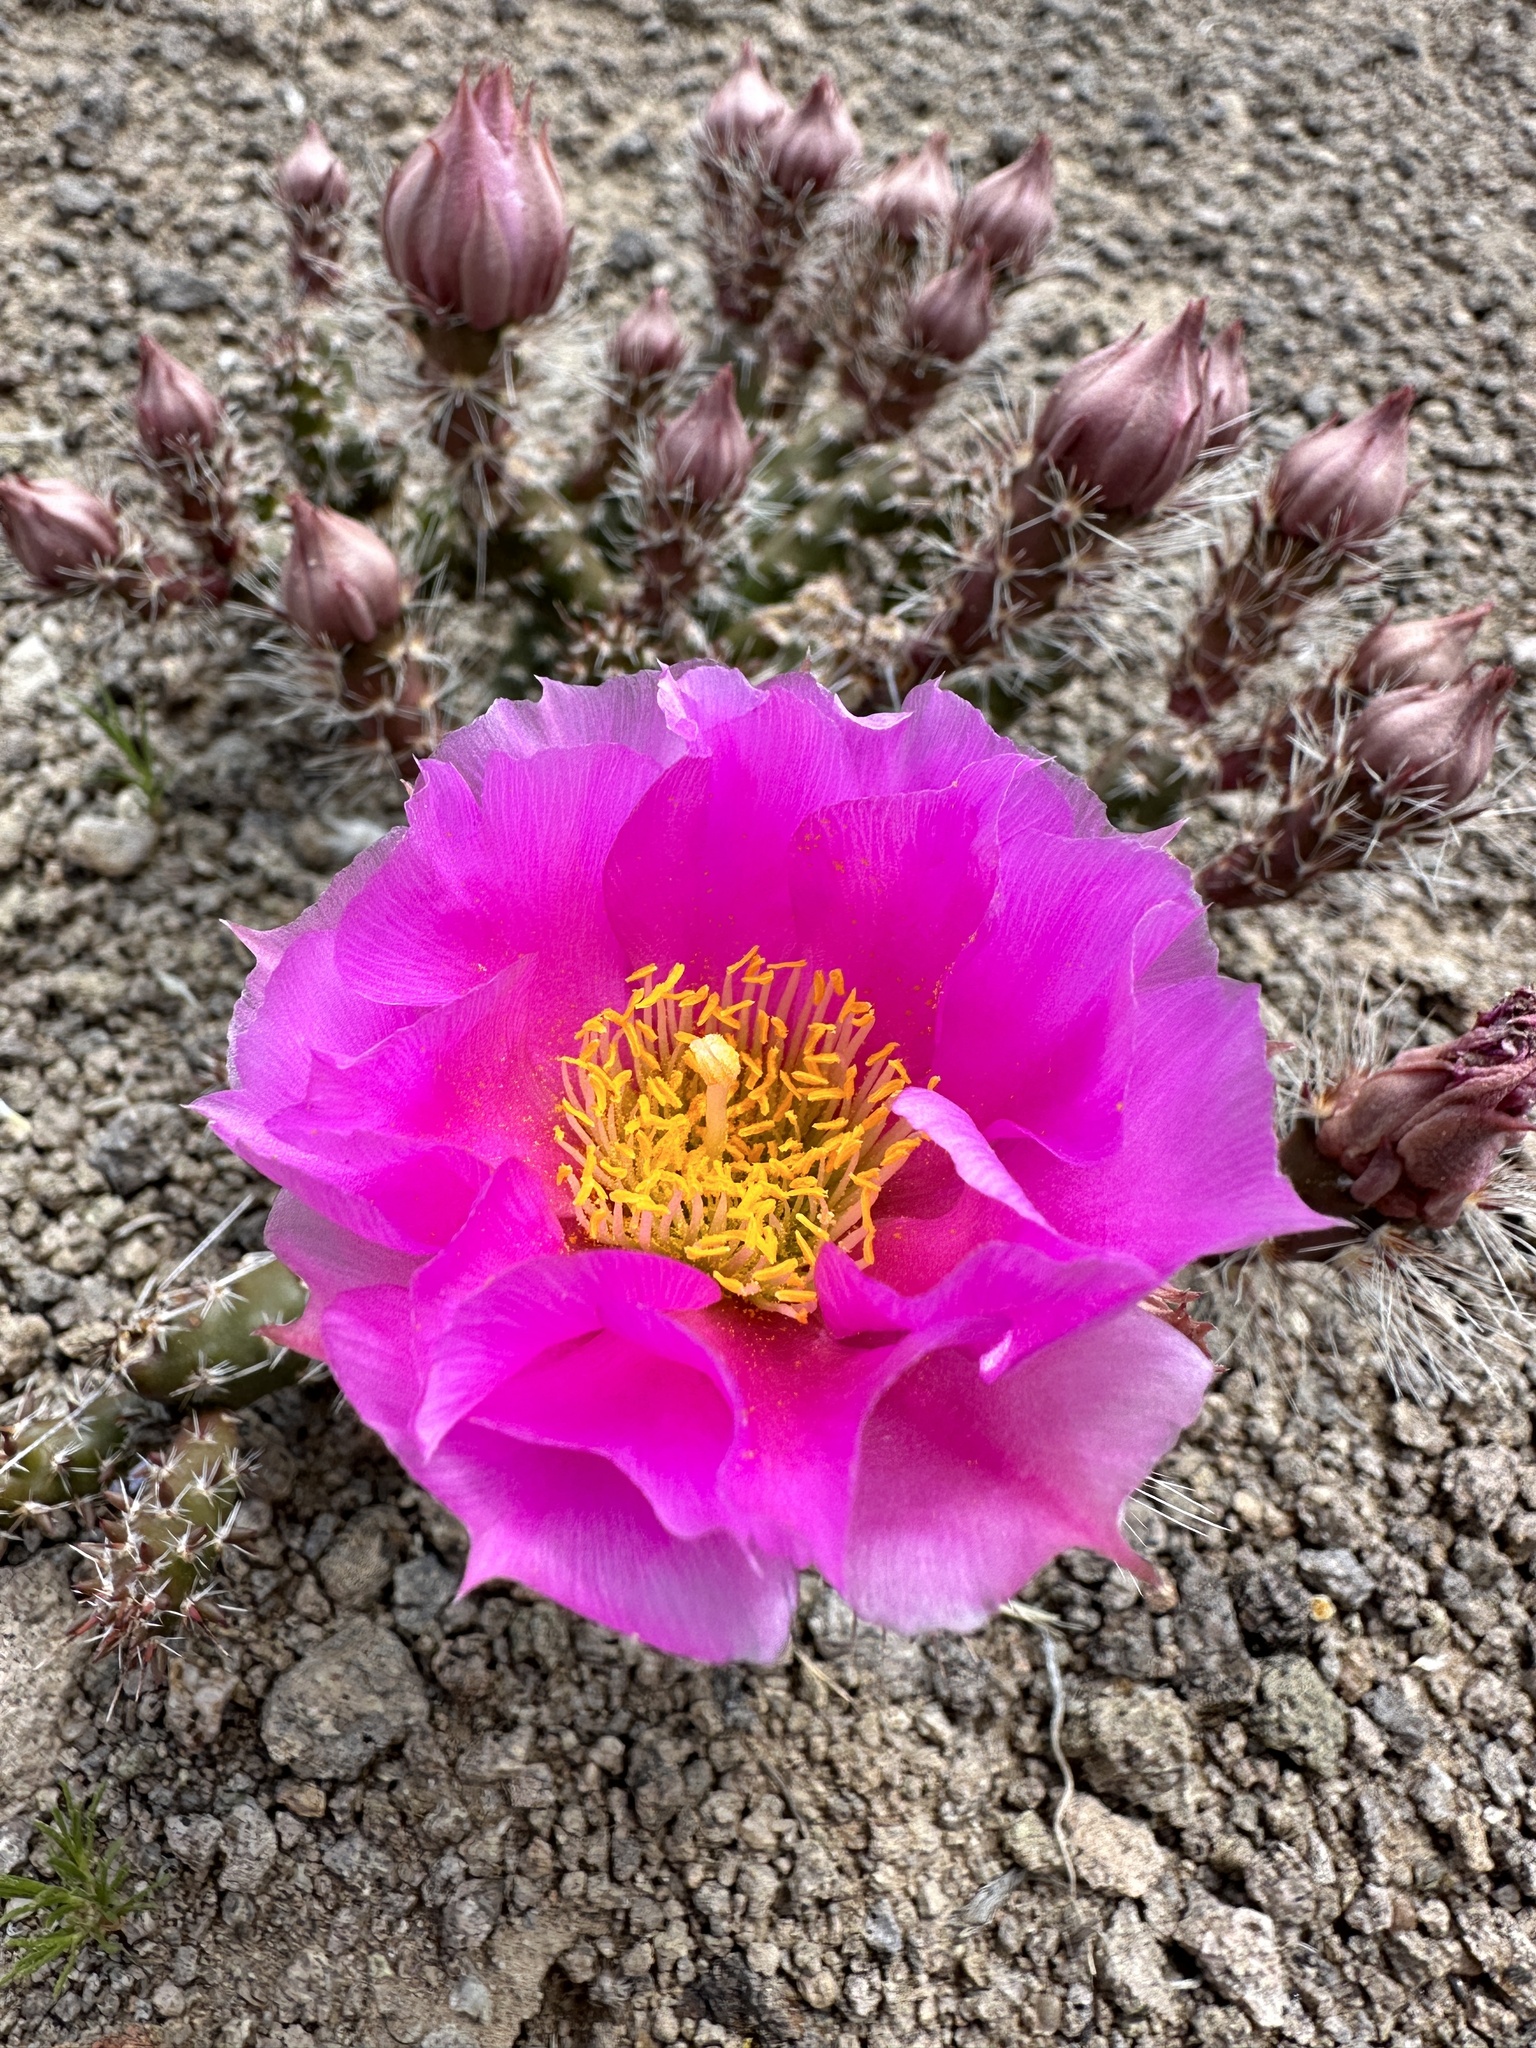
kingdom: Plantae
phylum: Tracheophyta
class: Magnoliopsida
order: Caryophyllales
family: Cactaceae
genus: Micropuntia
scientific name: Micropuntia pulchella
